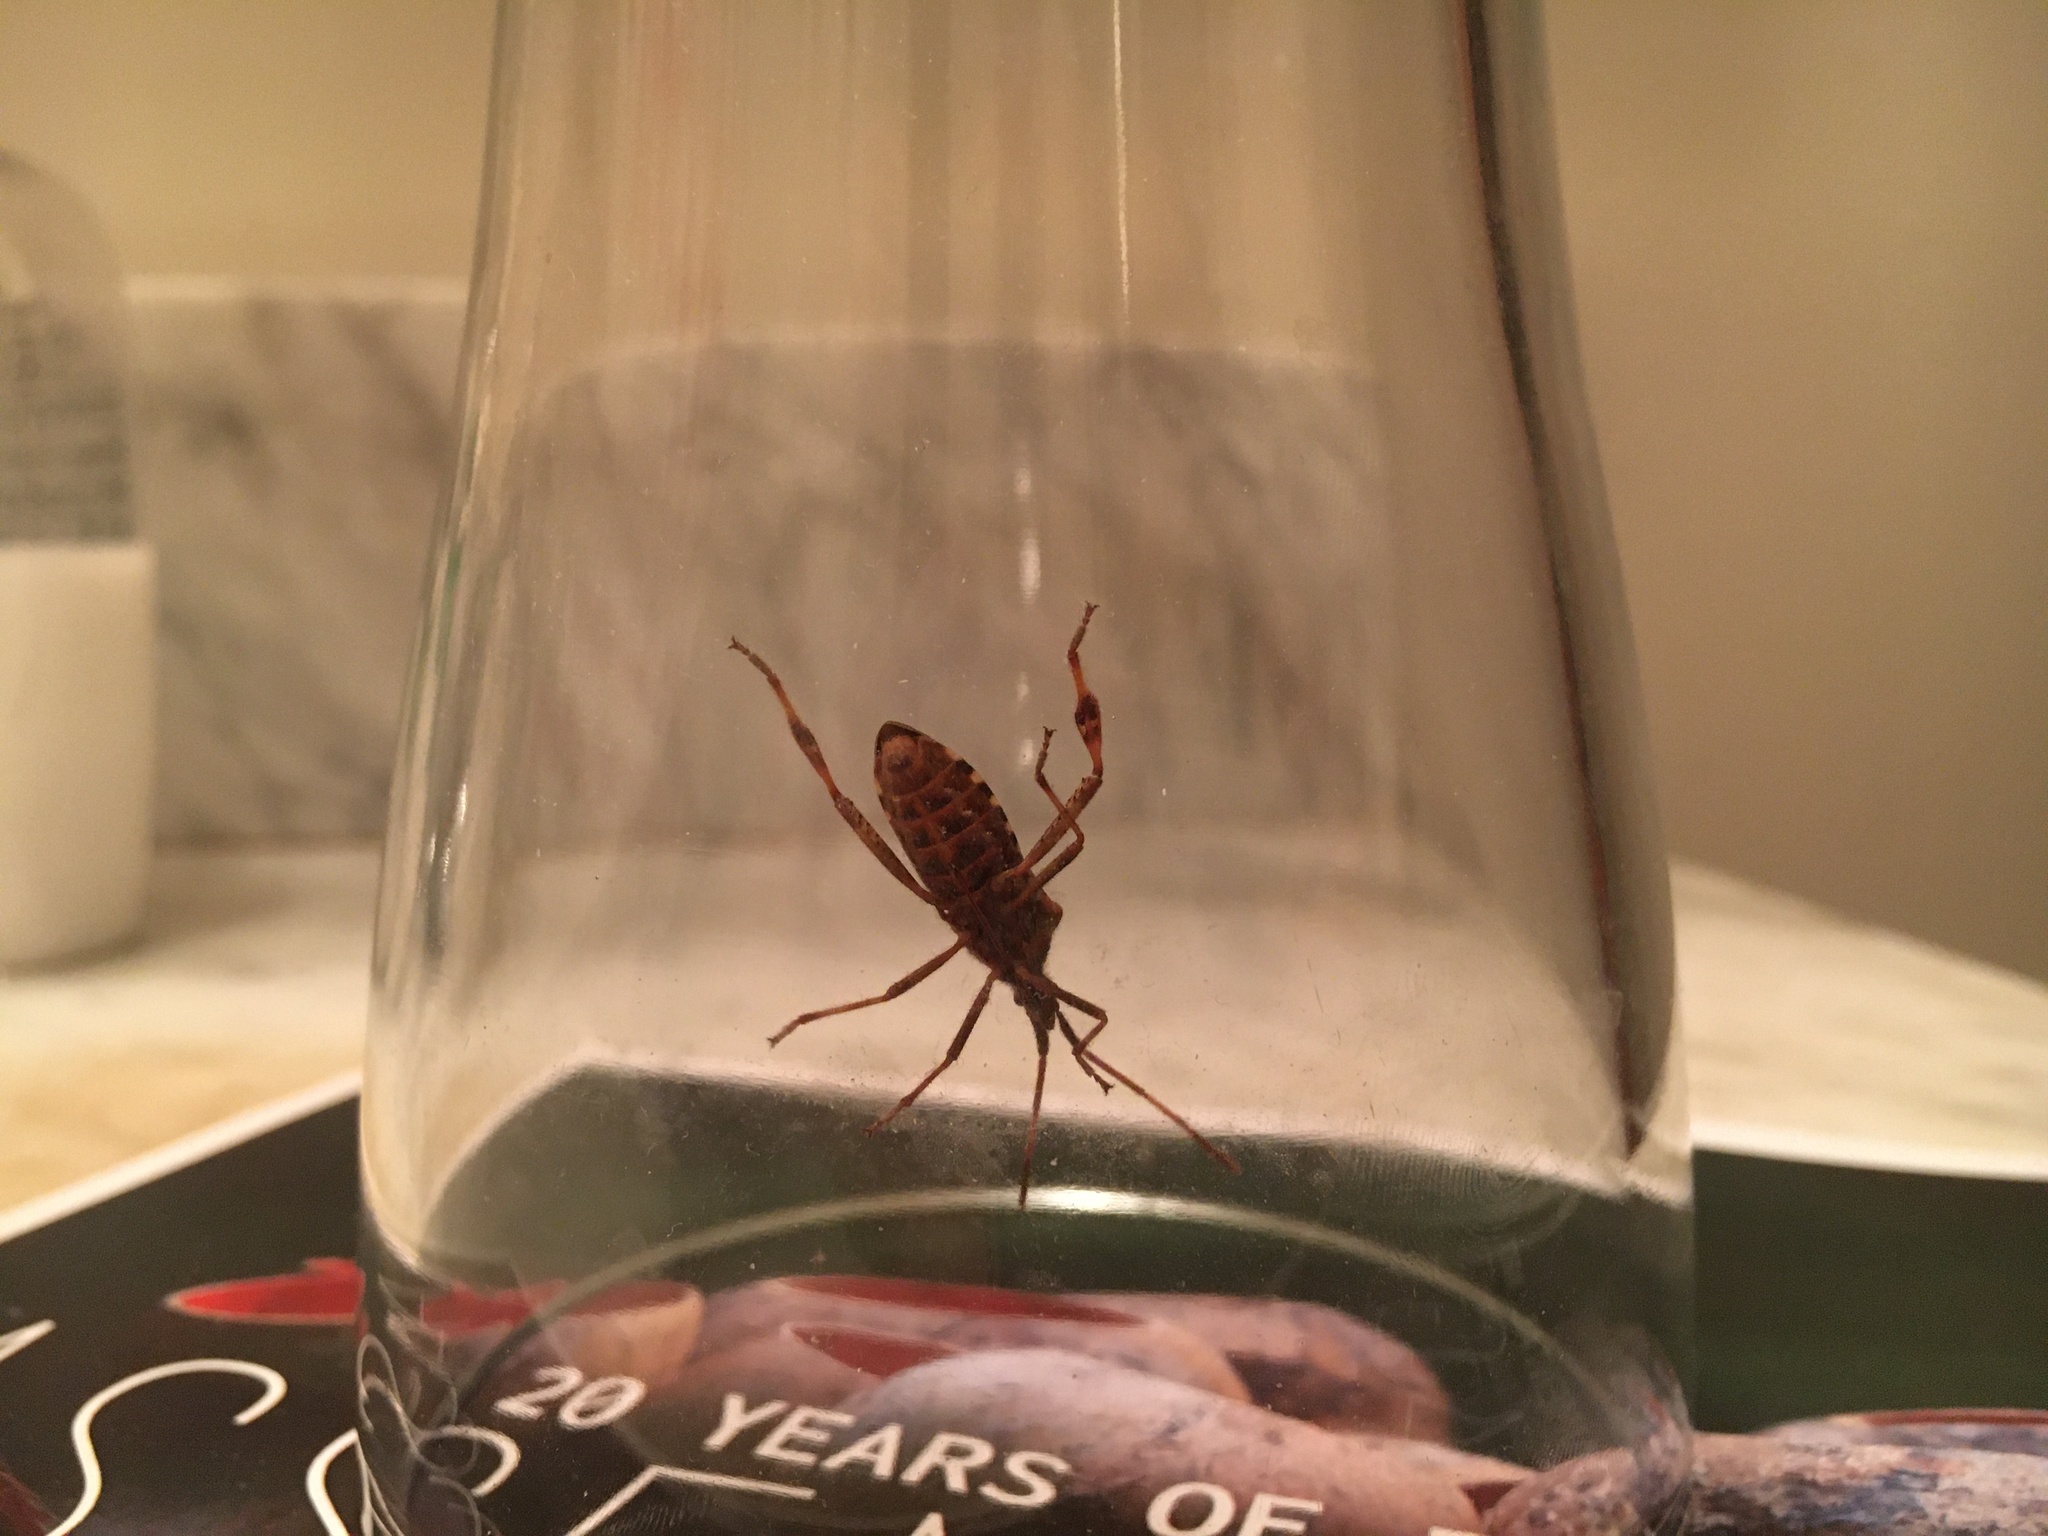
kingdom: Animalia
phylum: Arthropoda
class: Insecta
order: Hemiptera
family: Coreidae
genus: Leptoglossus
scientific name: Leptoglossus occidentalis
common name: Western conifer-seed bug
